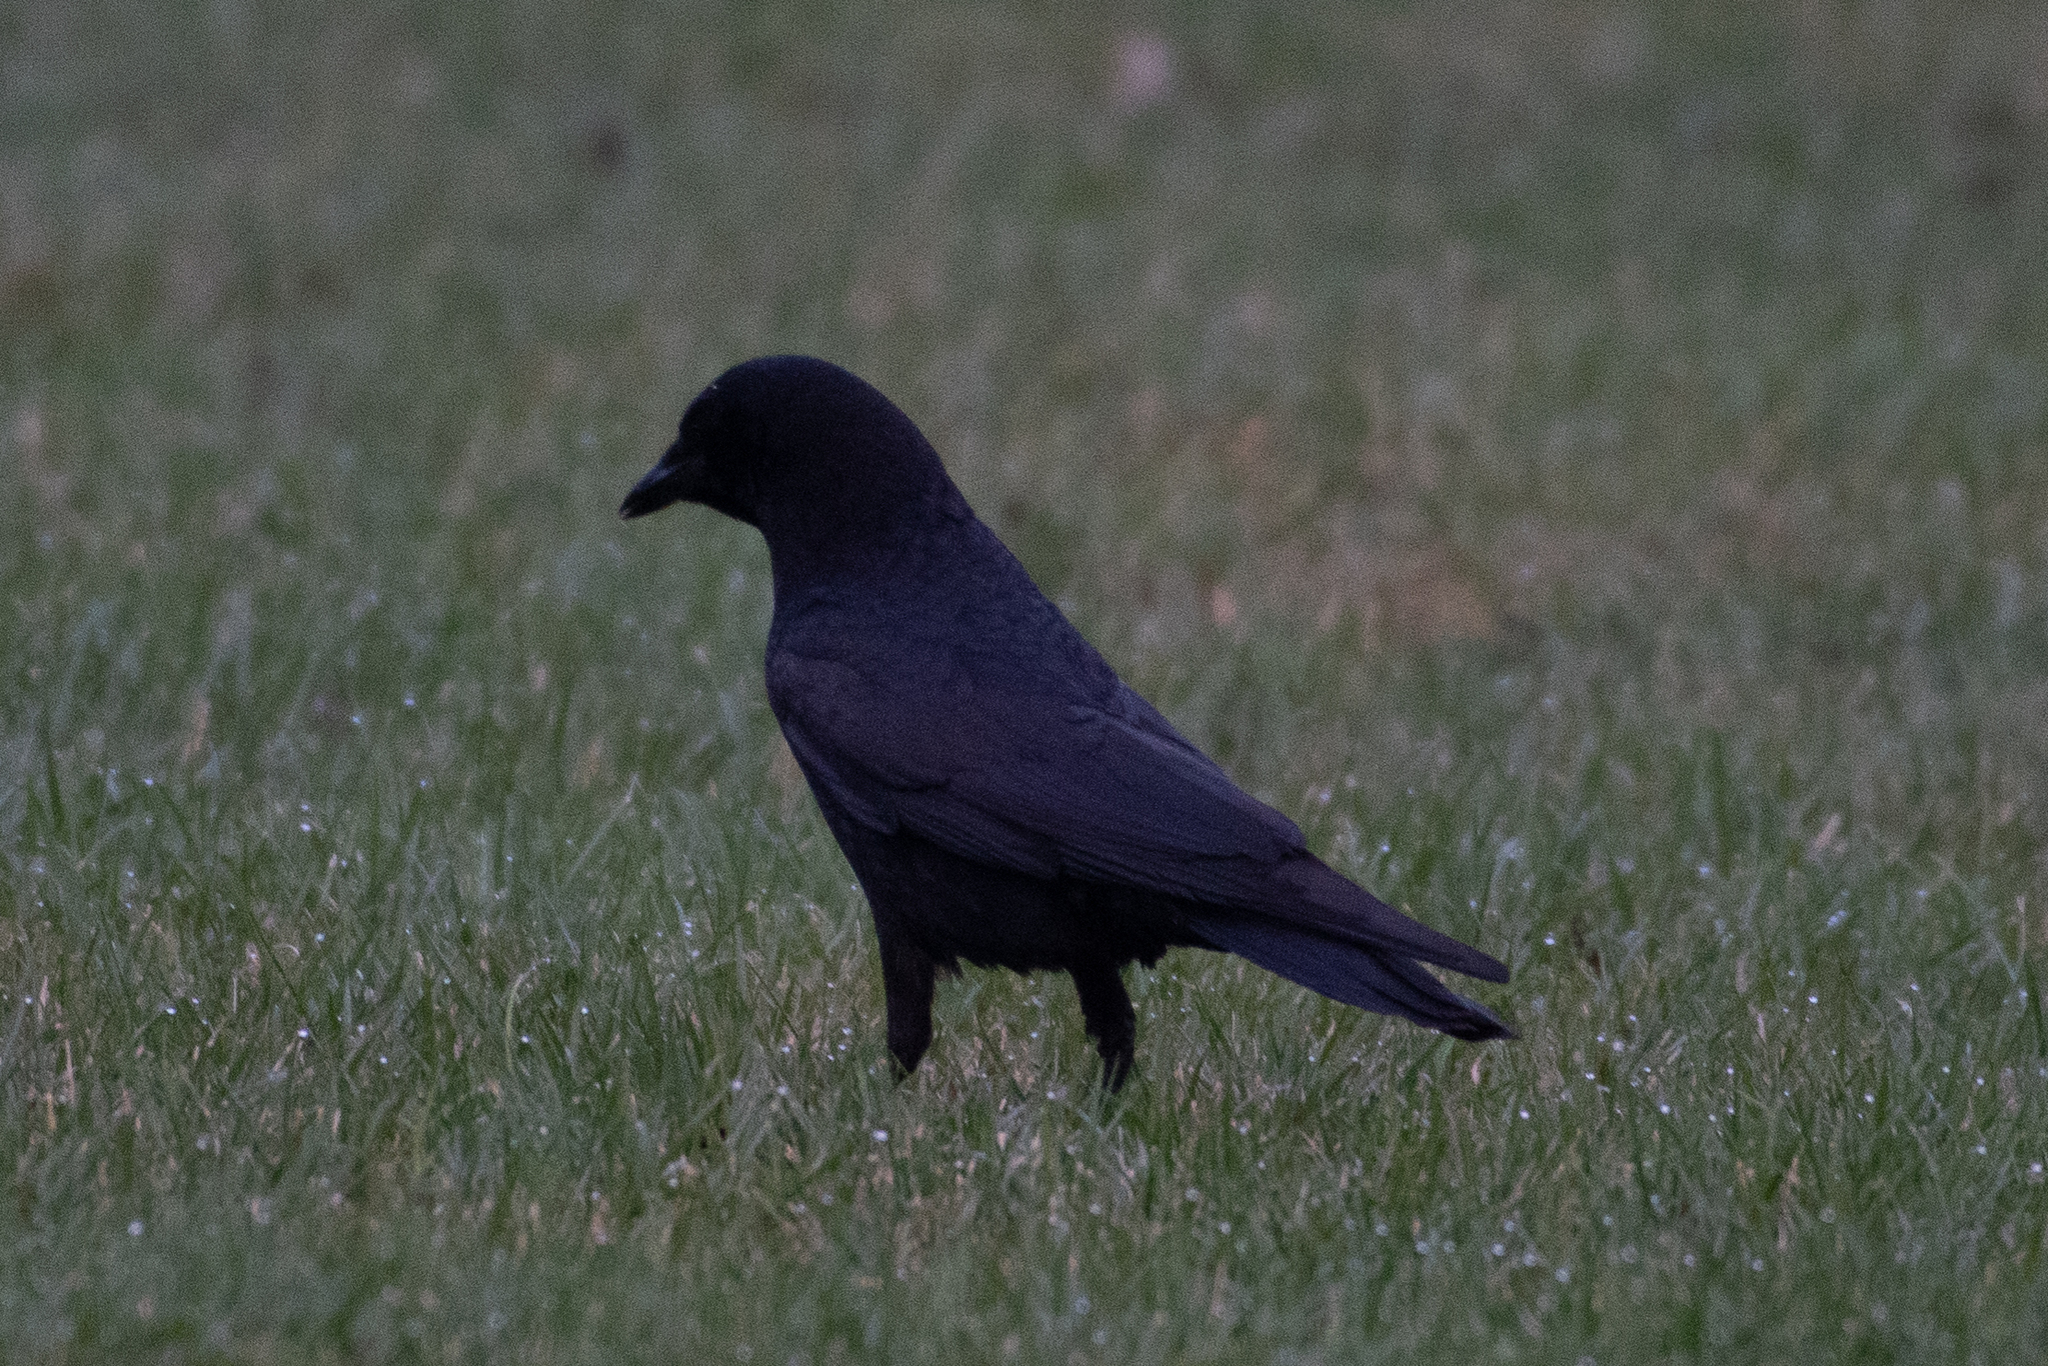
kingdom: Animalia
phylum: Chordata
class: Aves
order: Passeriformes
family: Corvidae
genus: Corvus
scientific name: Corvus brachyrhynchos
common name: American crow
